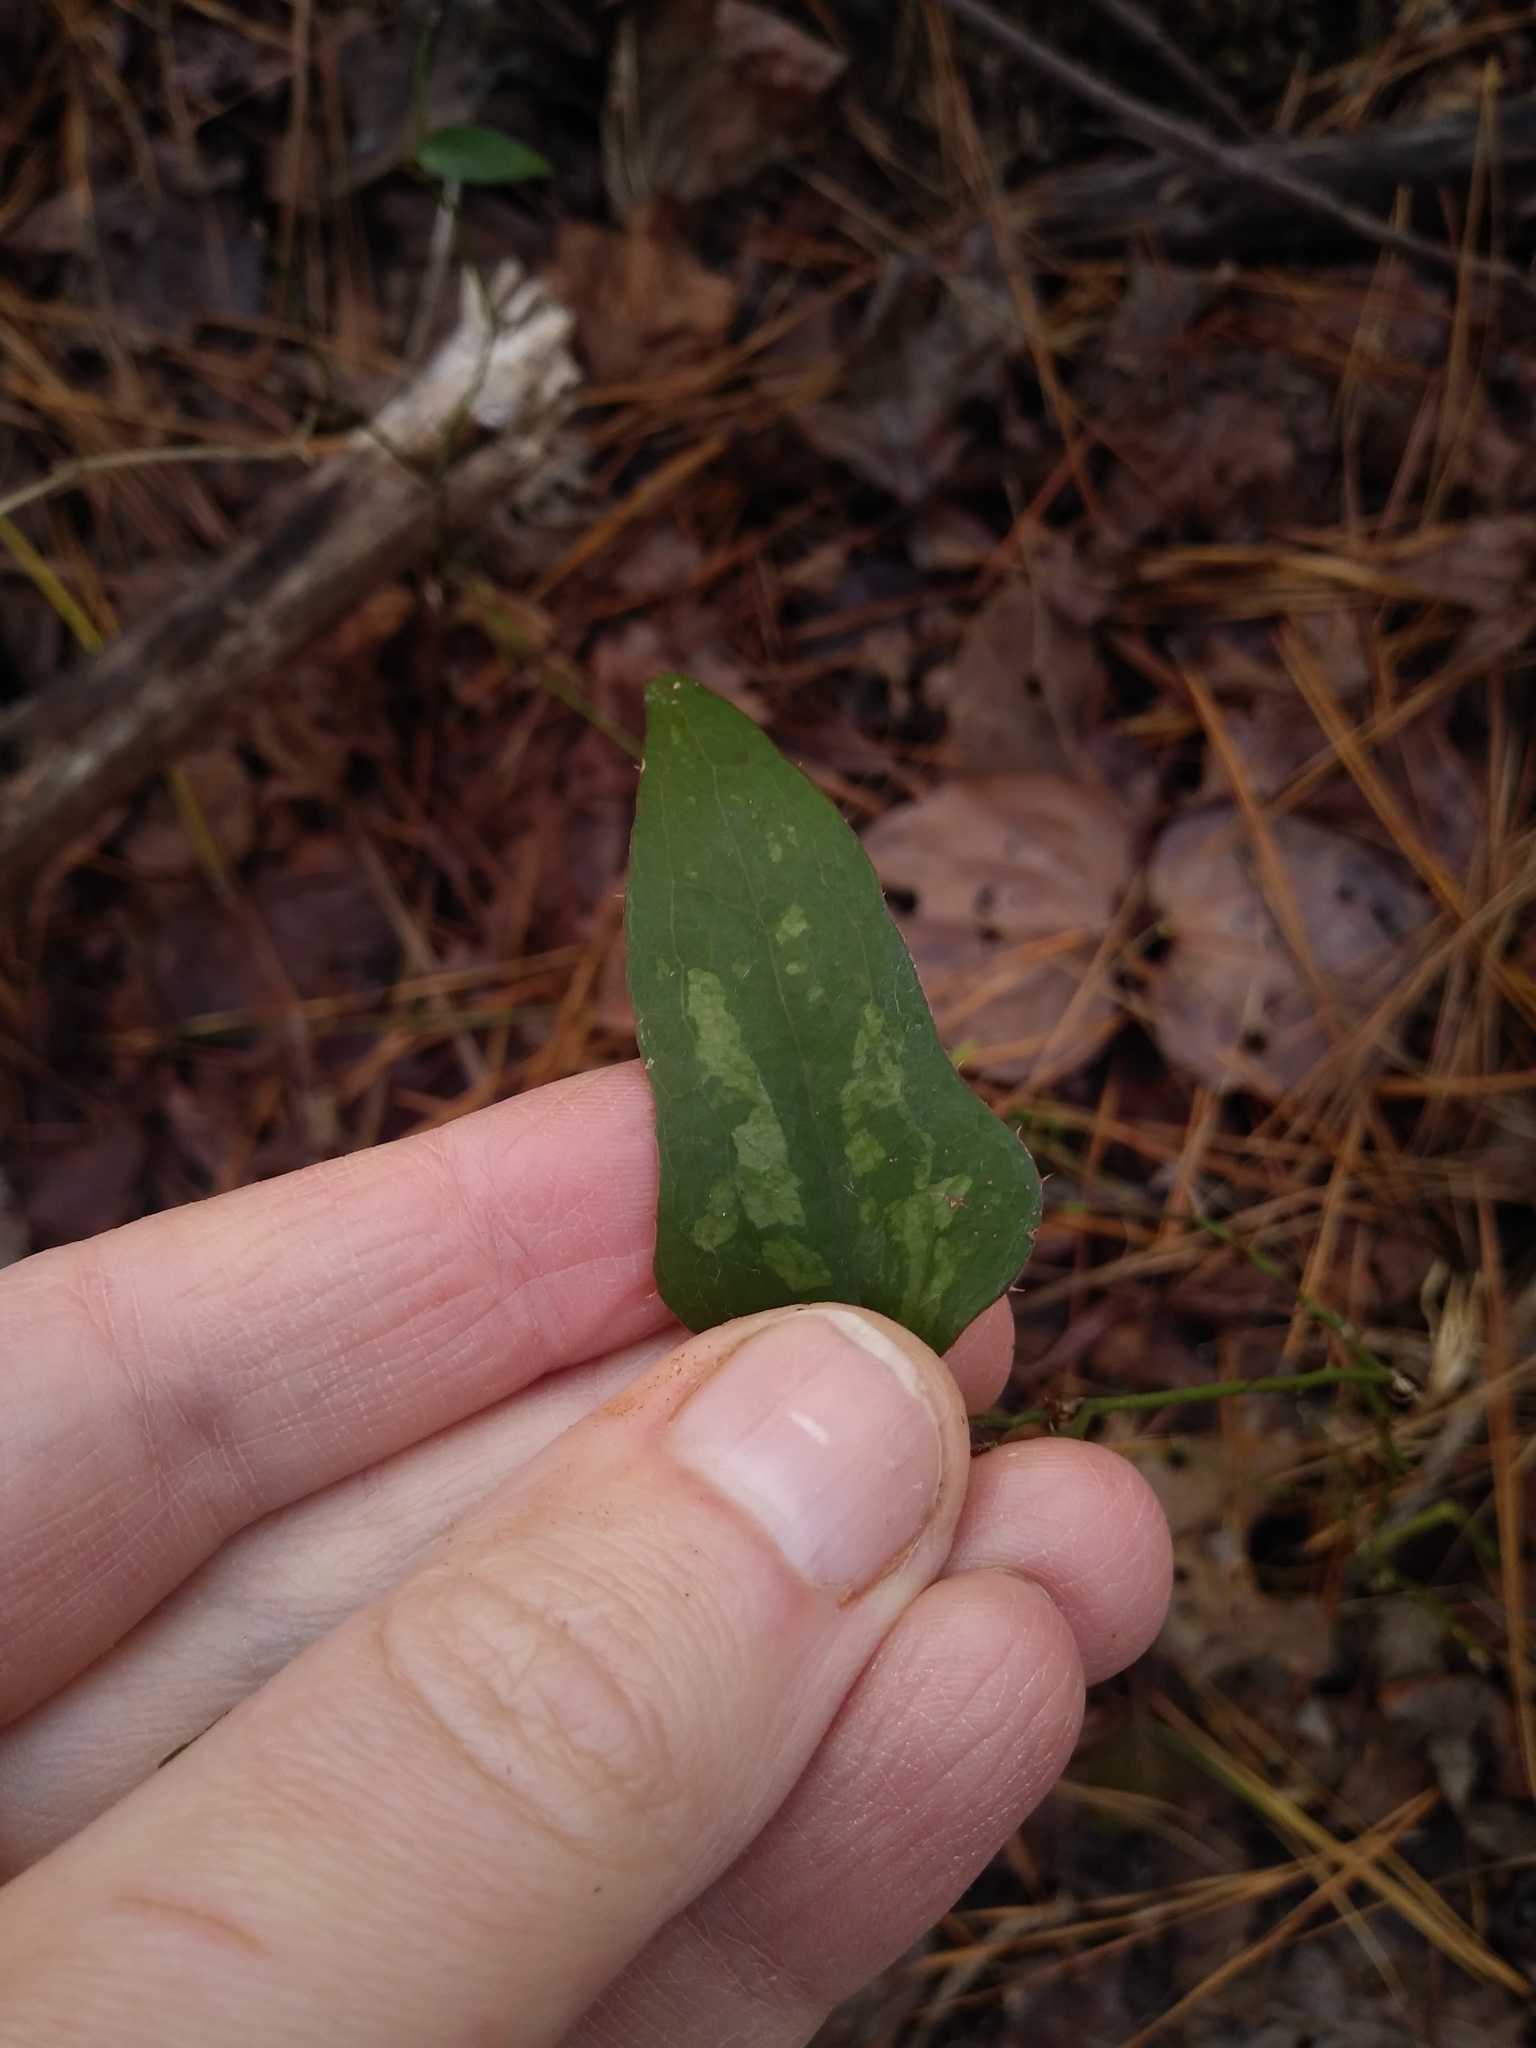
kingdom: Plantae
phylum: Tracheophyta
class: Liliopsida
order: Liliales
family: Smilacaceae
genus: Smilax
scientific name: Smilax bona-nox
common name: Catbrier
